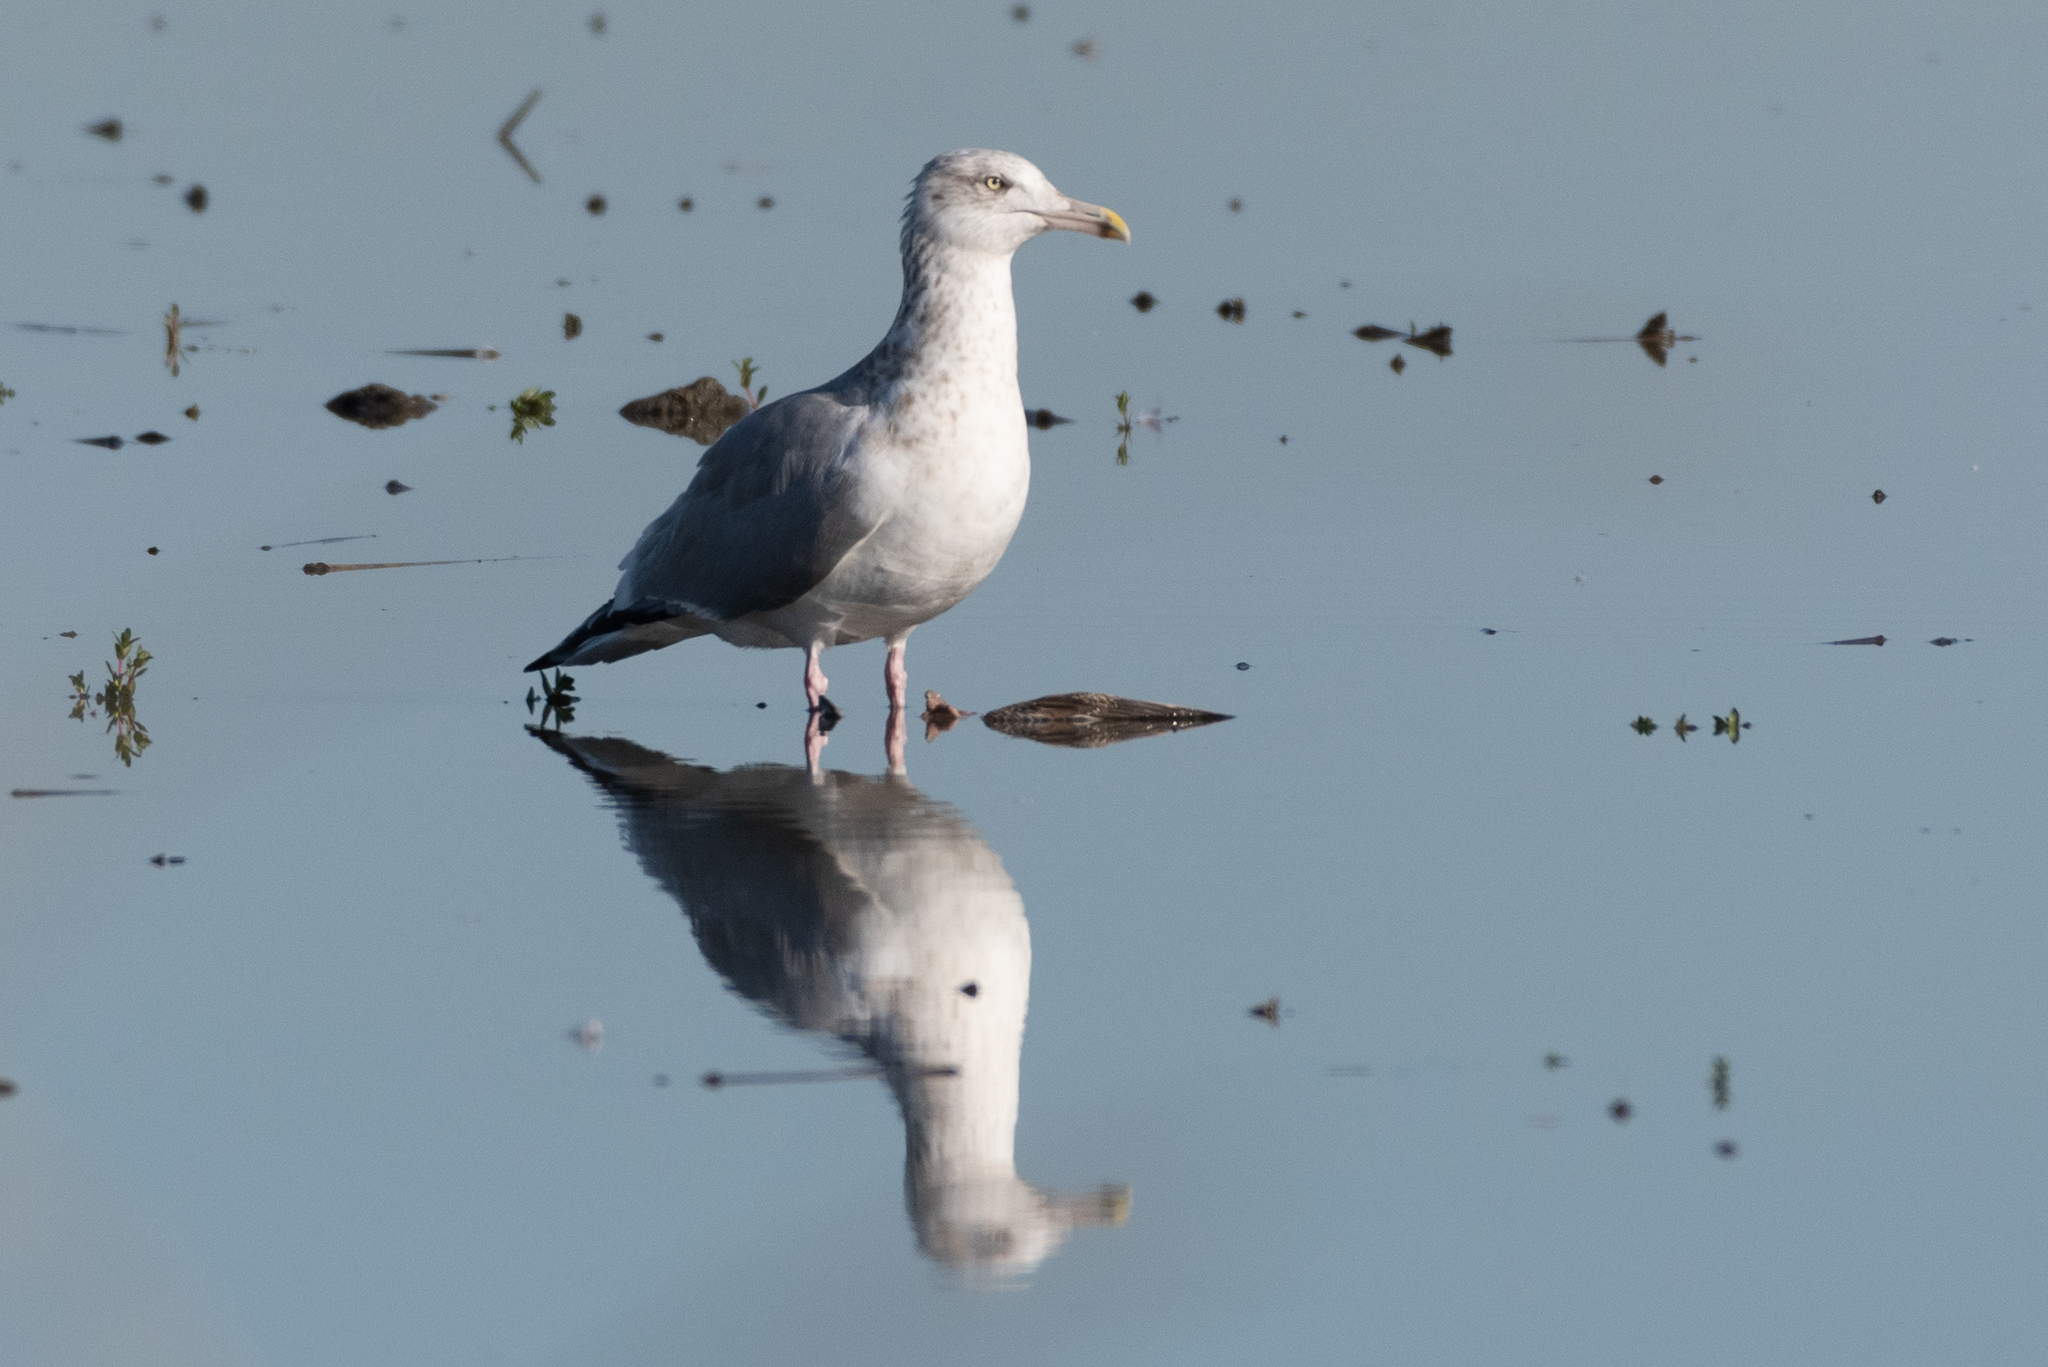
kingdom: Animalia
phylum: Chordata
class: Aves
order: Charadriiformes
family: Laridae
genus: Larus
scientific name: Larus argentatus
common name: Herring gull
